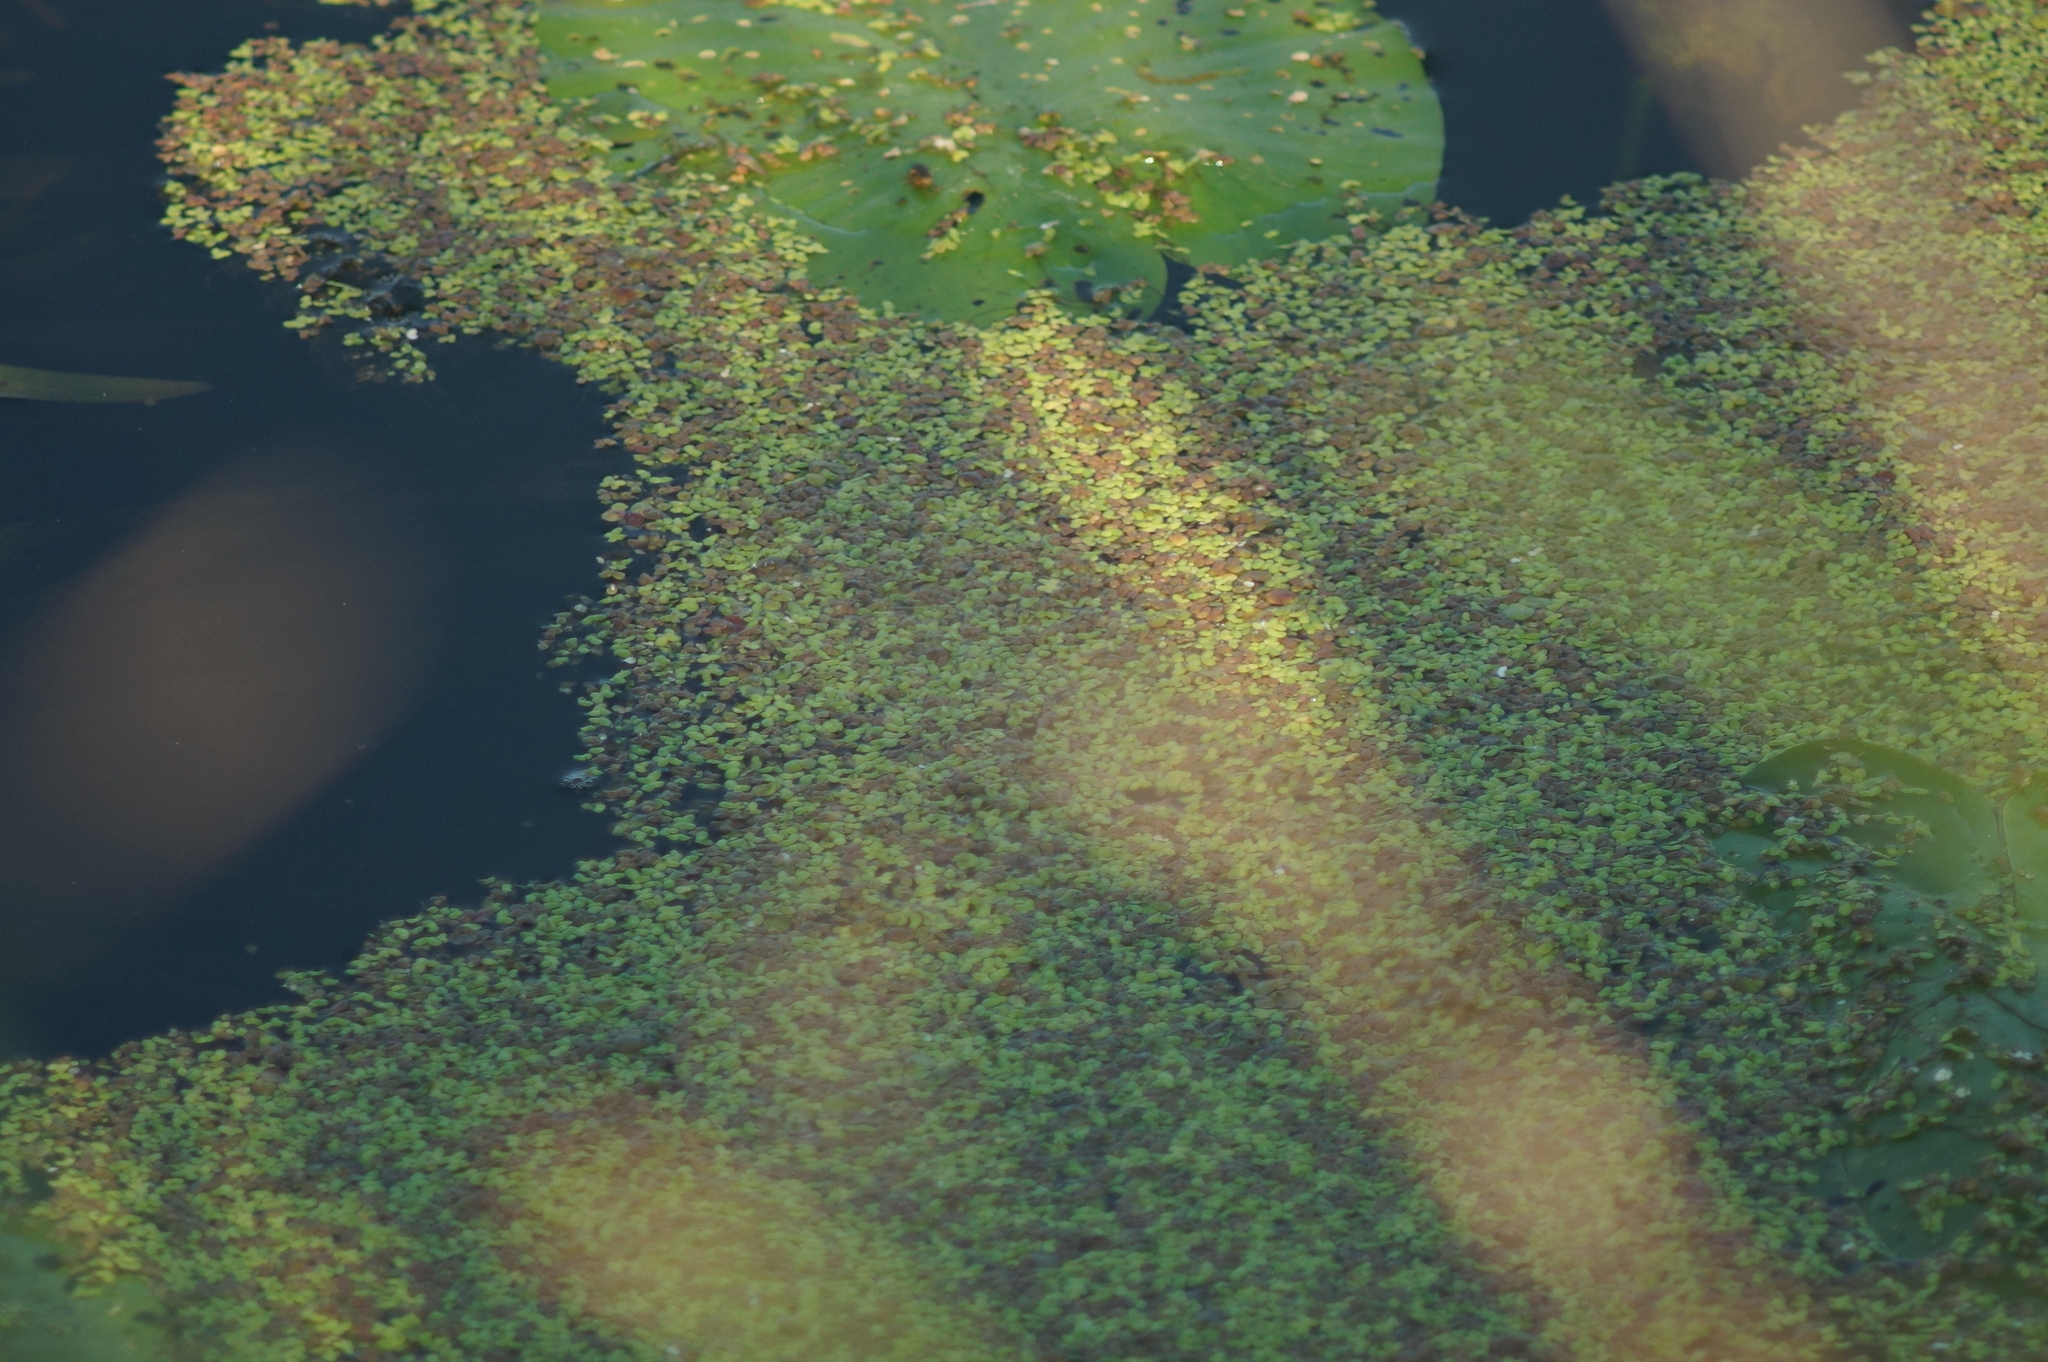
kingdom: Plantae
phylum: Tracheophyta
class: Liliopsida
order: Alismatales
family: Araceae
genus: Lemna
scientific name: Lemna minor
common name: Common duckweed
